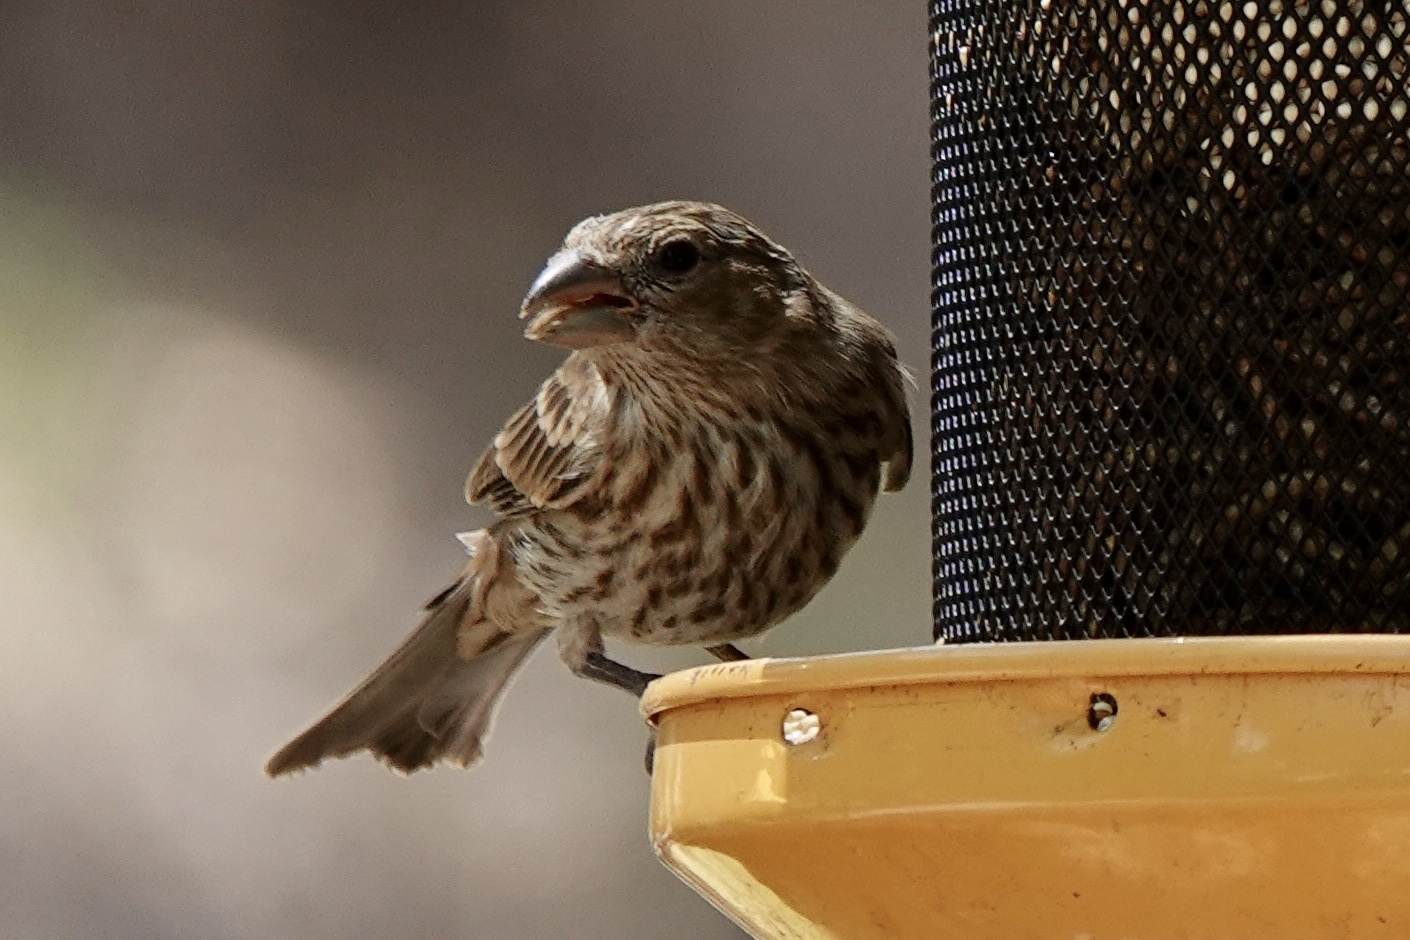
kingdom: Animalia
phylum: Chordata
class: Aves
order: Passeriformes
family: Fringillidae
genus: Haemorhous
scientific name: Haemorhous mexicanus
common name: House finch
